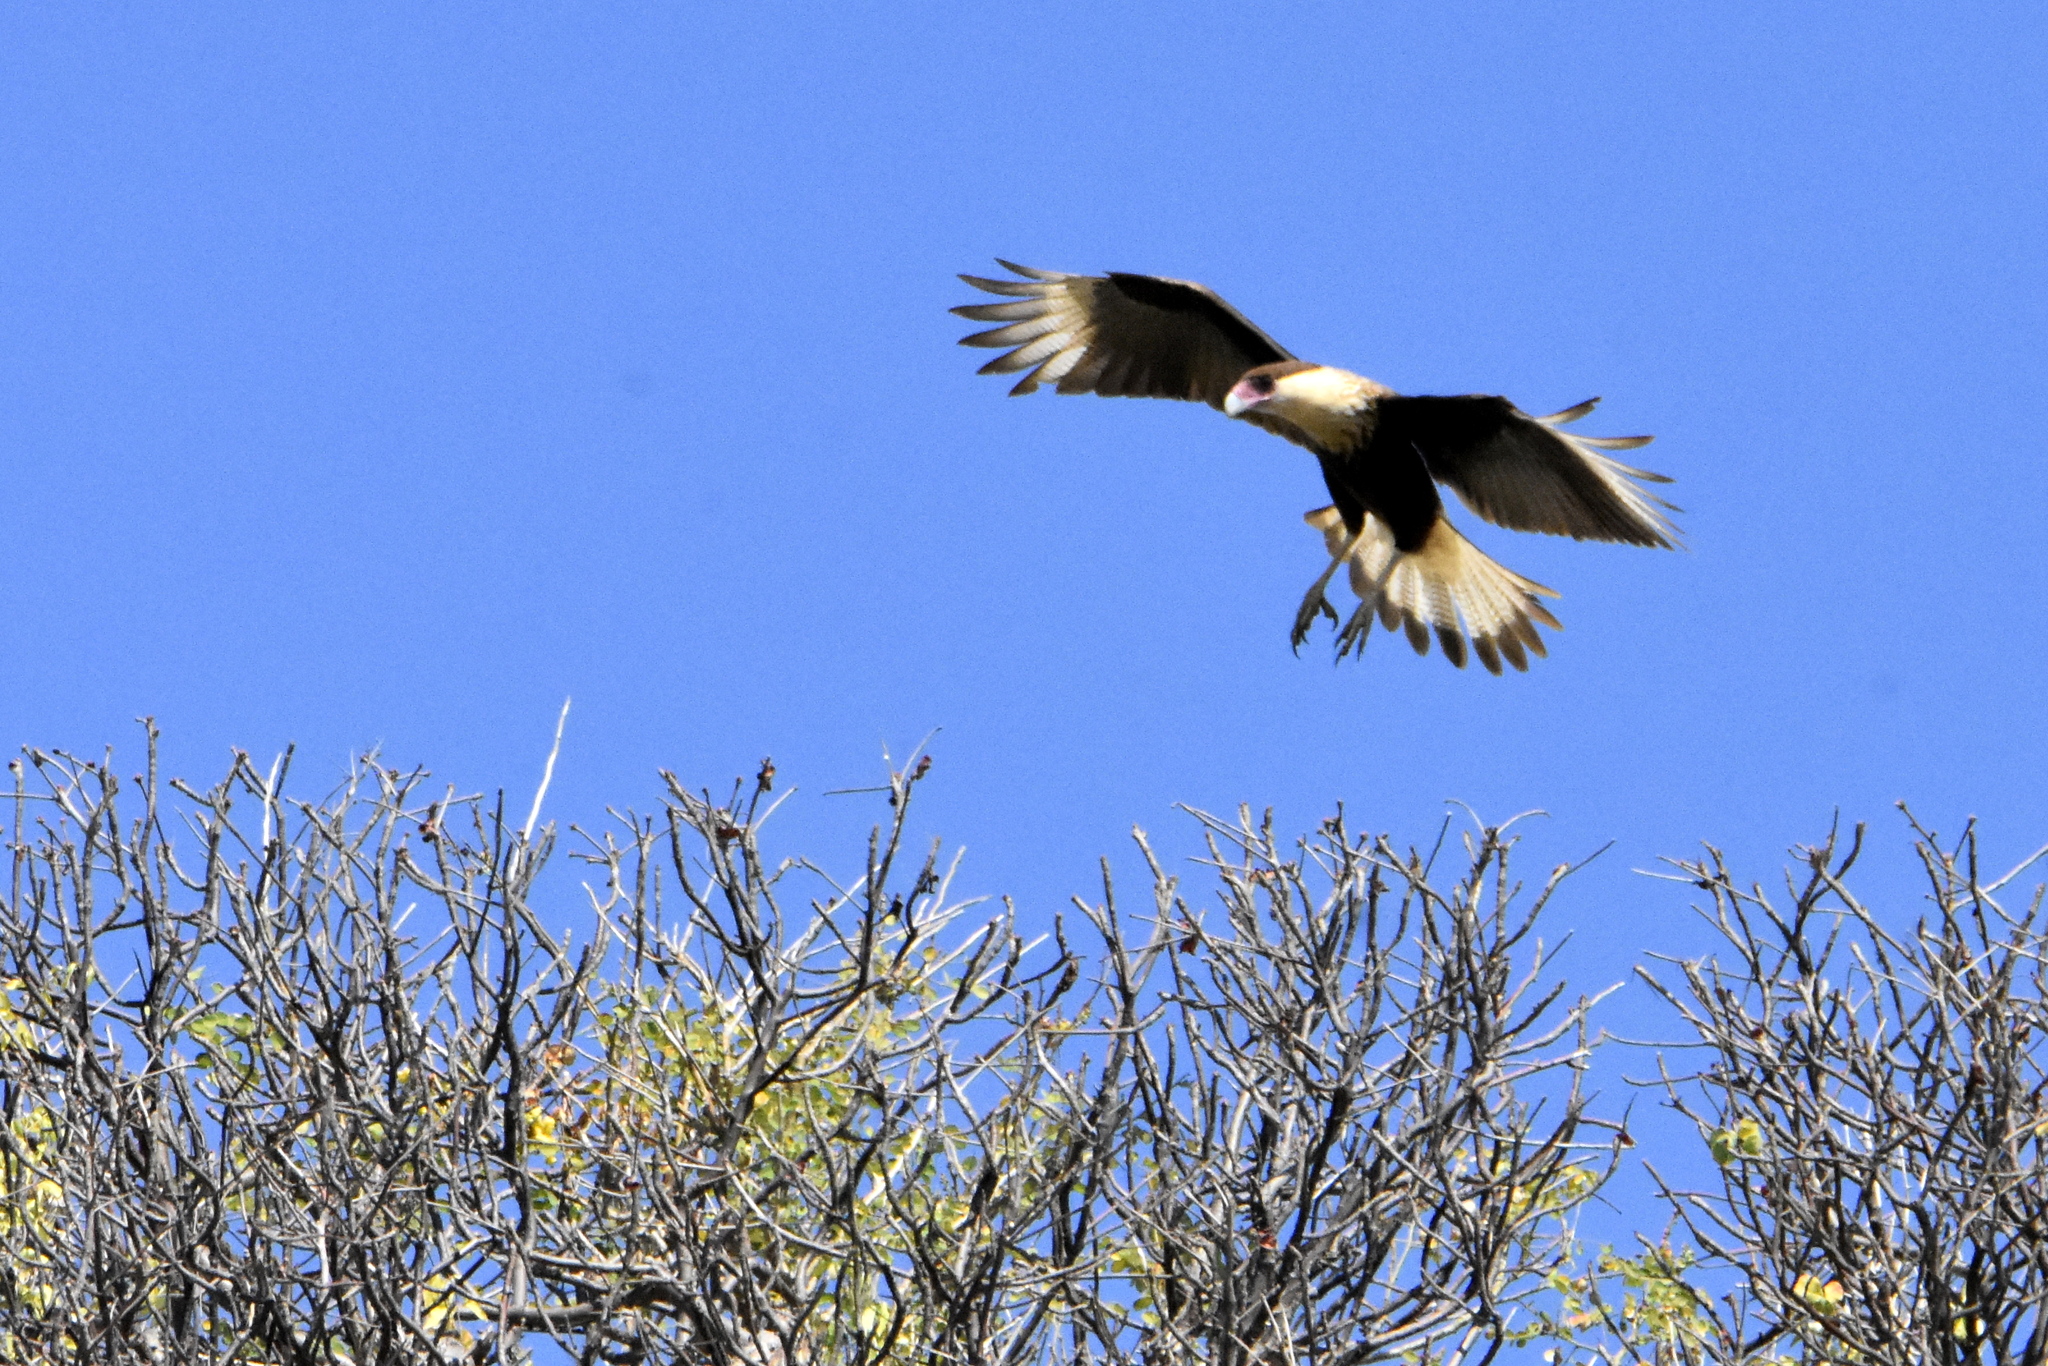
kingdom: Animalia
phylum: Chordata
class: Aves
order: Falconiformes
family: Falconidae
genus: Caracara
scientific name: Caracara plancus
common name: Southern caracara
